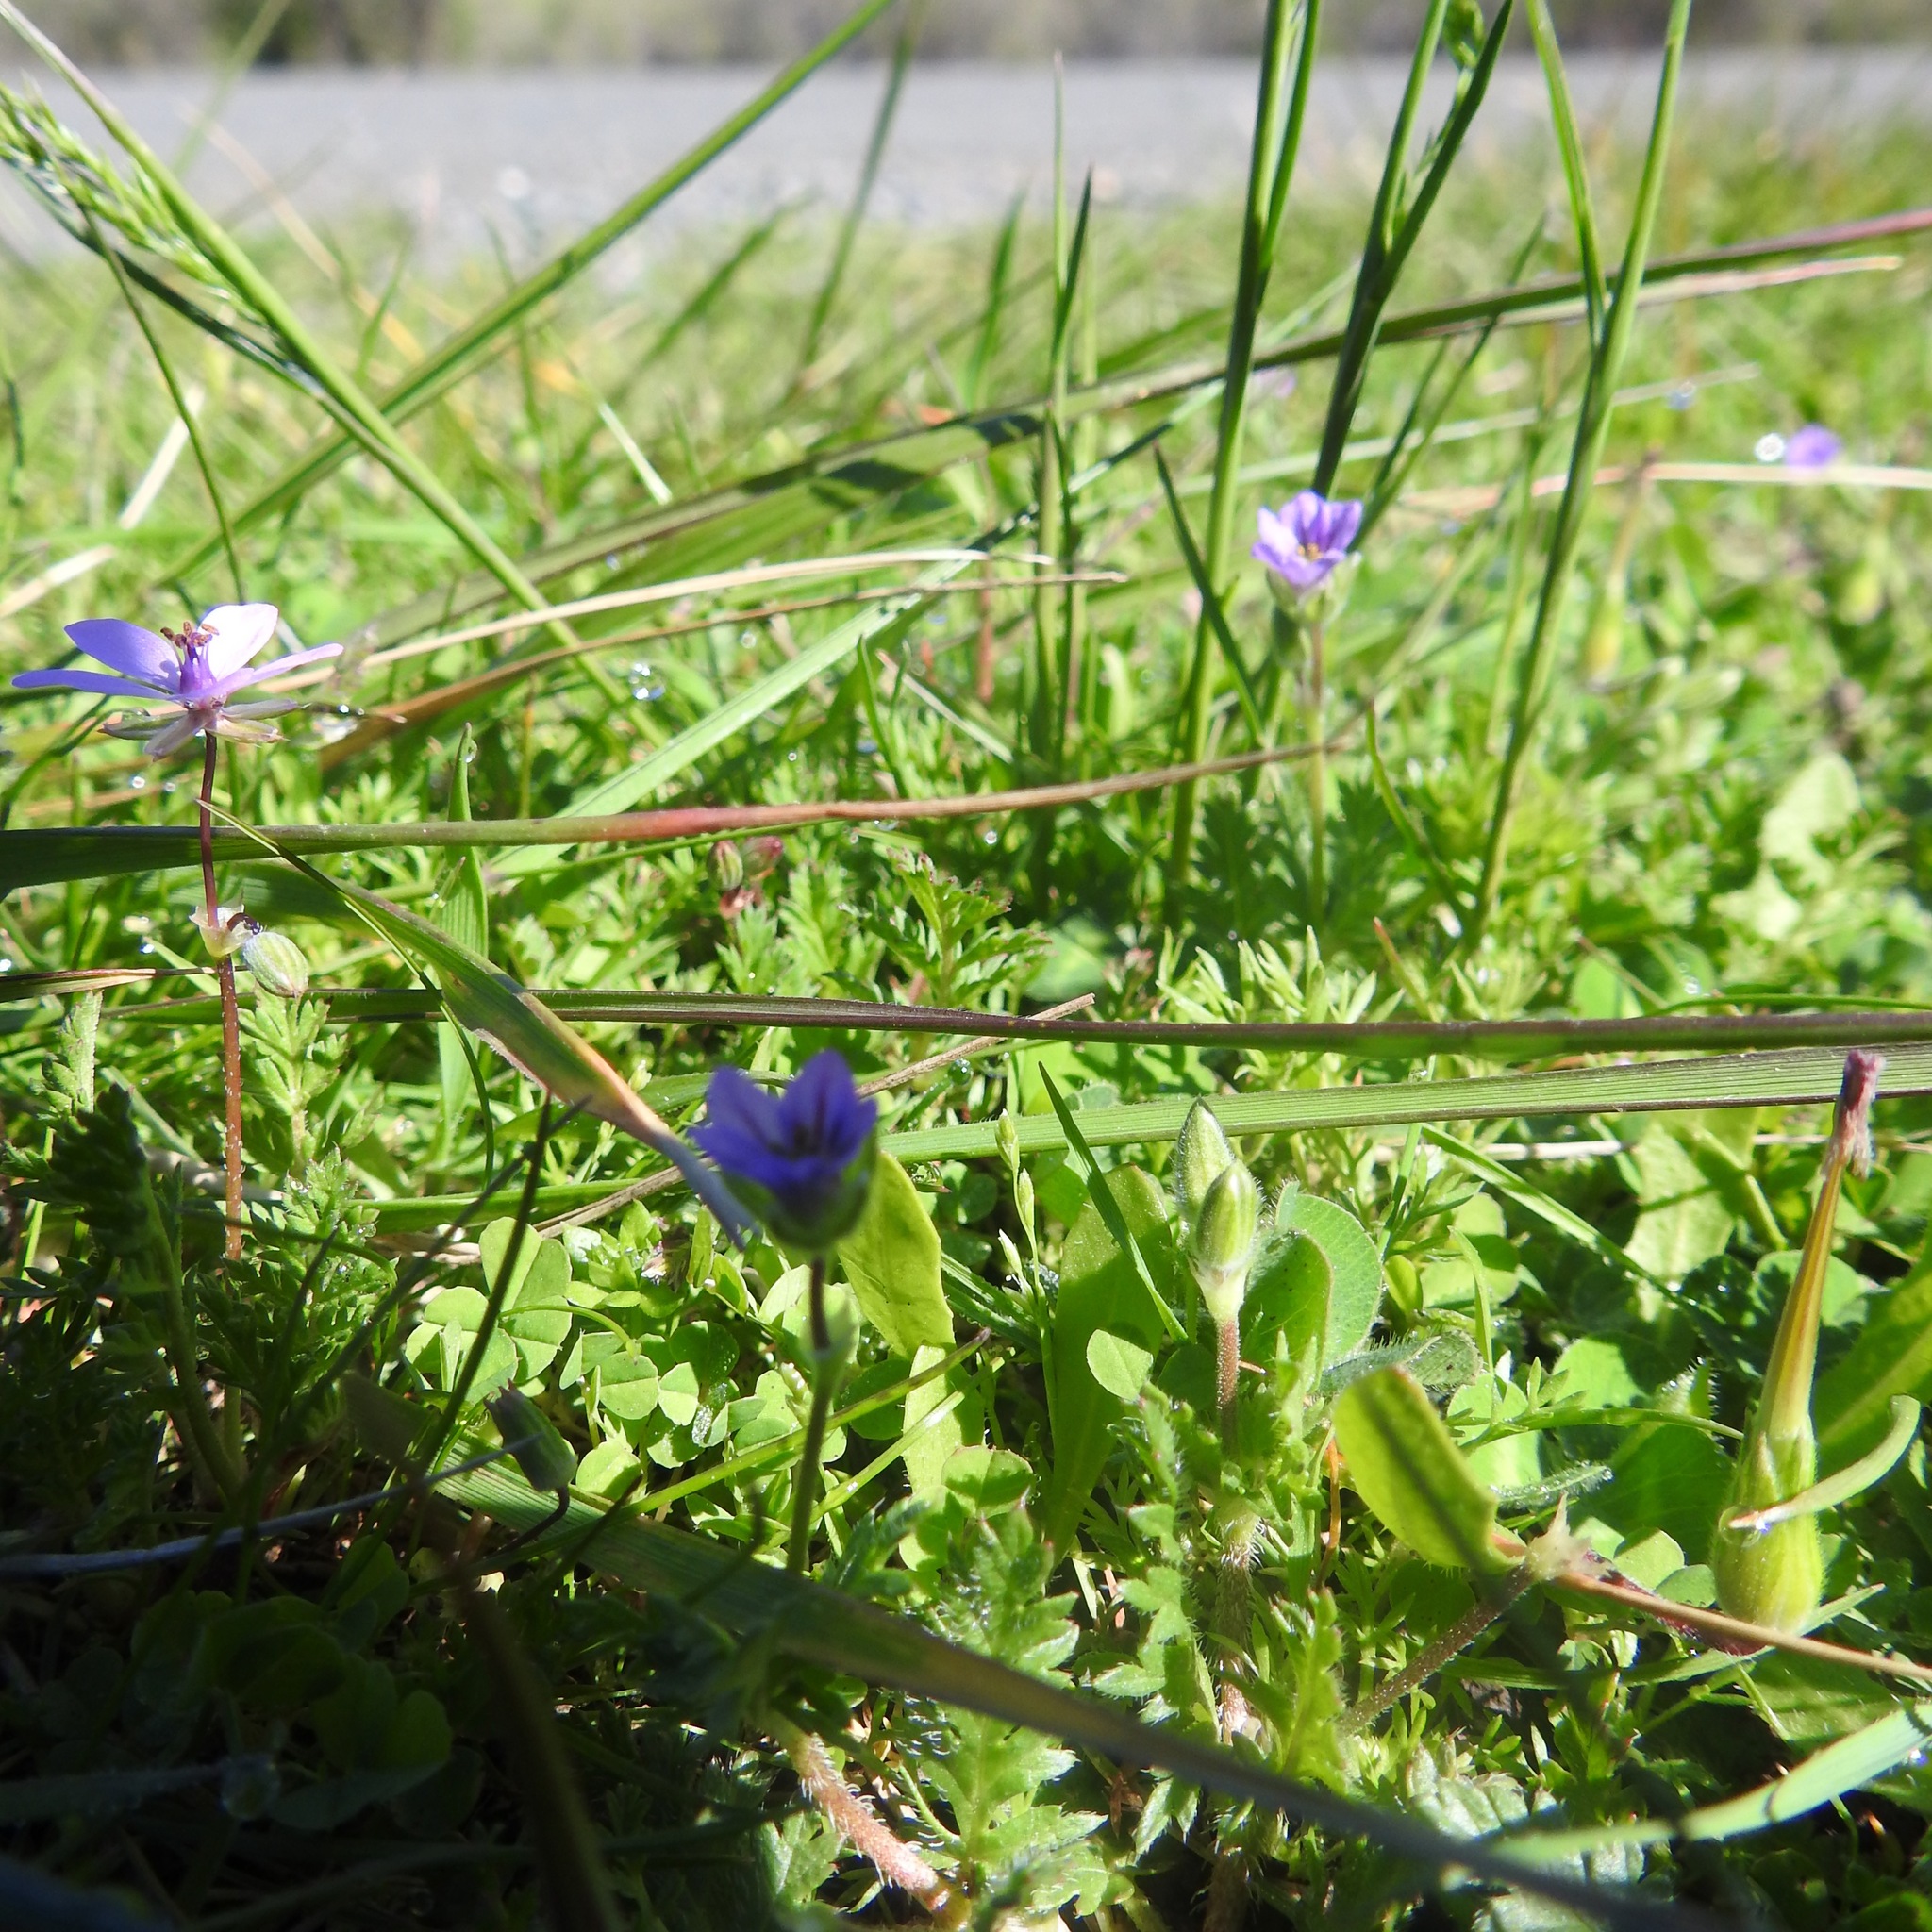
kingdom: Animalia
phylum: Chordata
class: Aves
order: Passeriformes
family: Fringillidae
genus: Spinus
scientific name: Spinus psaltria
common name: Lesser goldfinch
